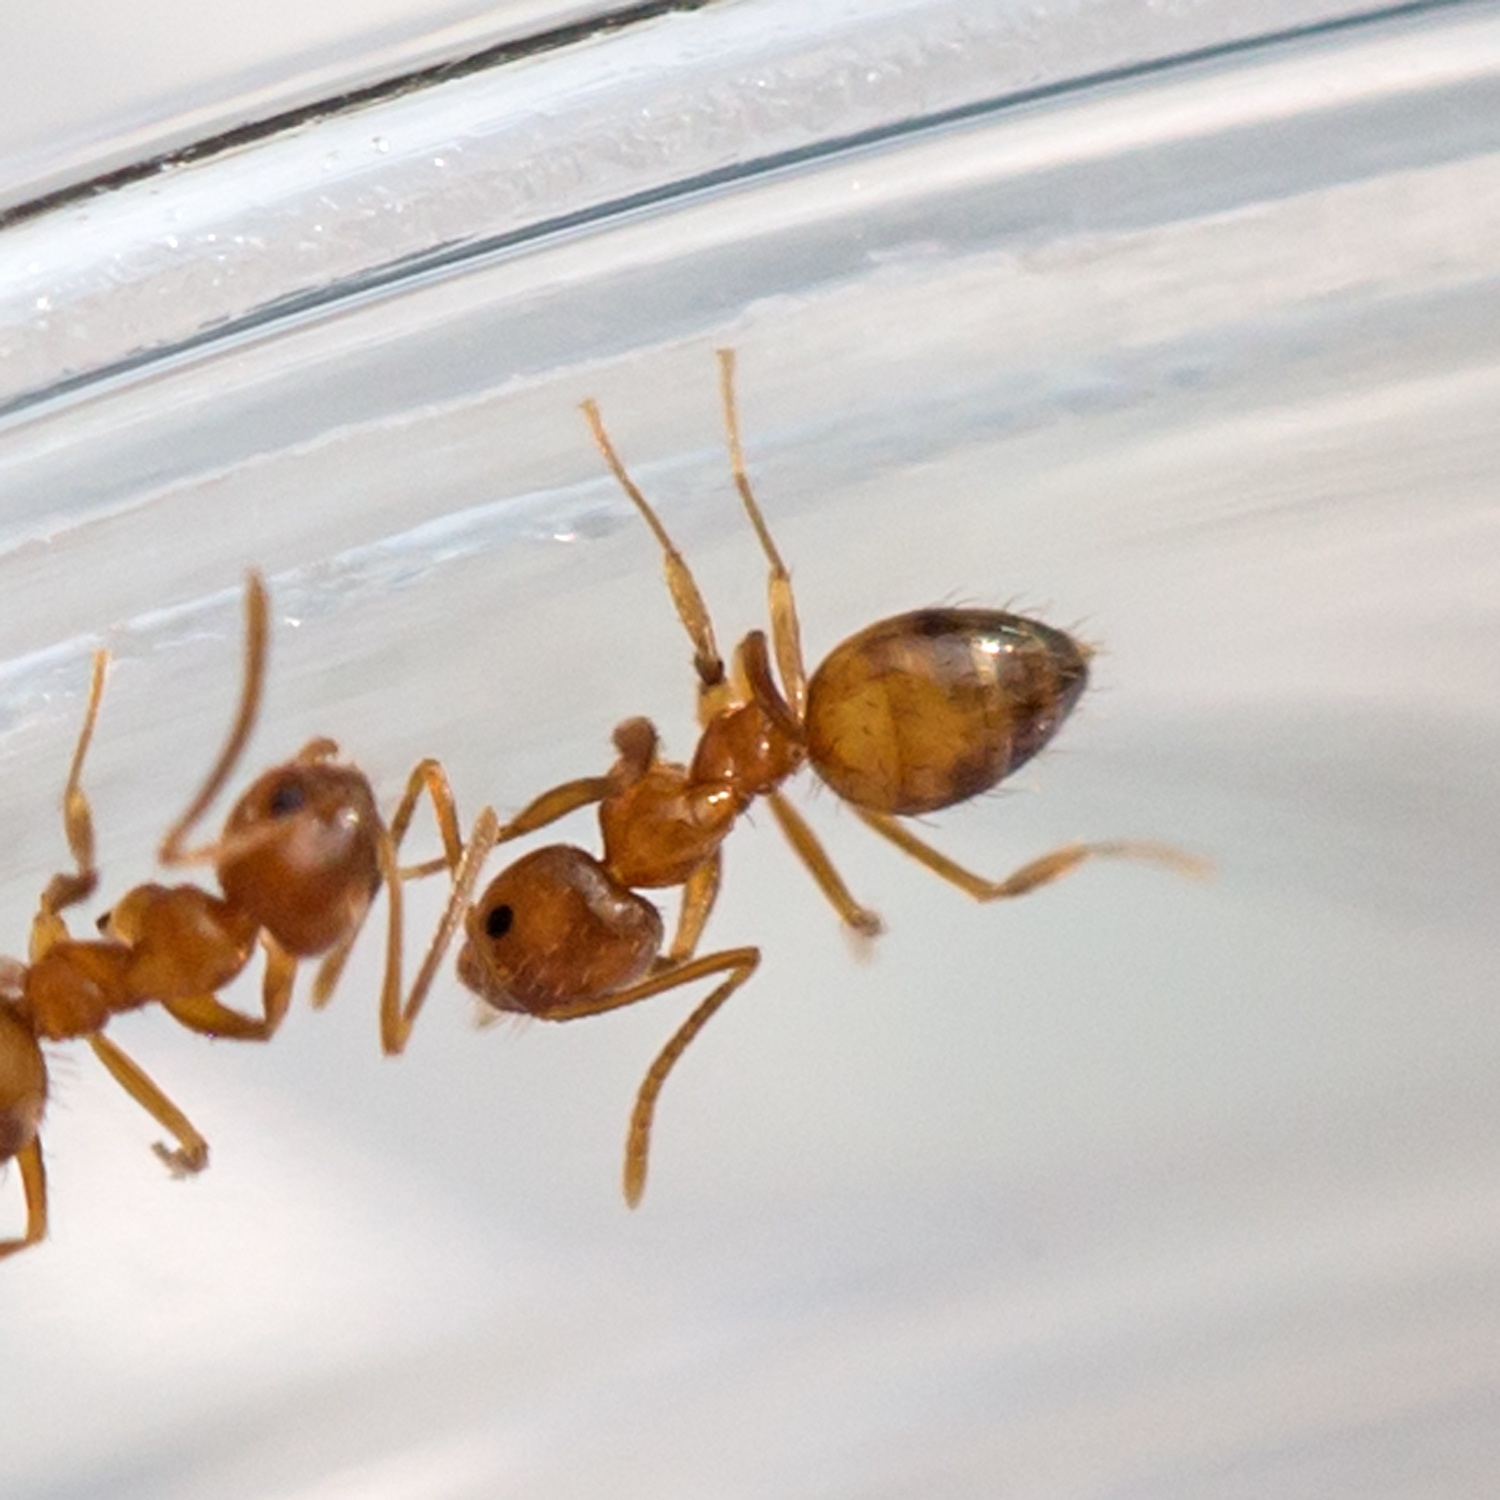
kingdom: Animalia
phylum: Arthropoda
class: Insecta
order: Hymenoptera
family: Formicidae
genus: Paratrechina
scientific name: Paratrechina flavipes
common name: Eastern asian formicine ant
